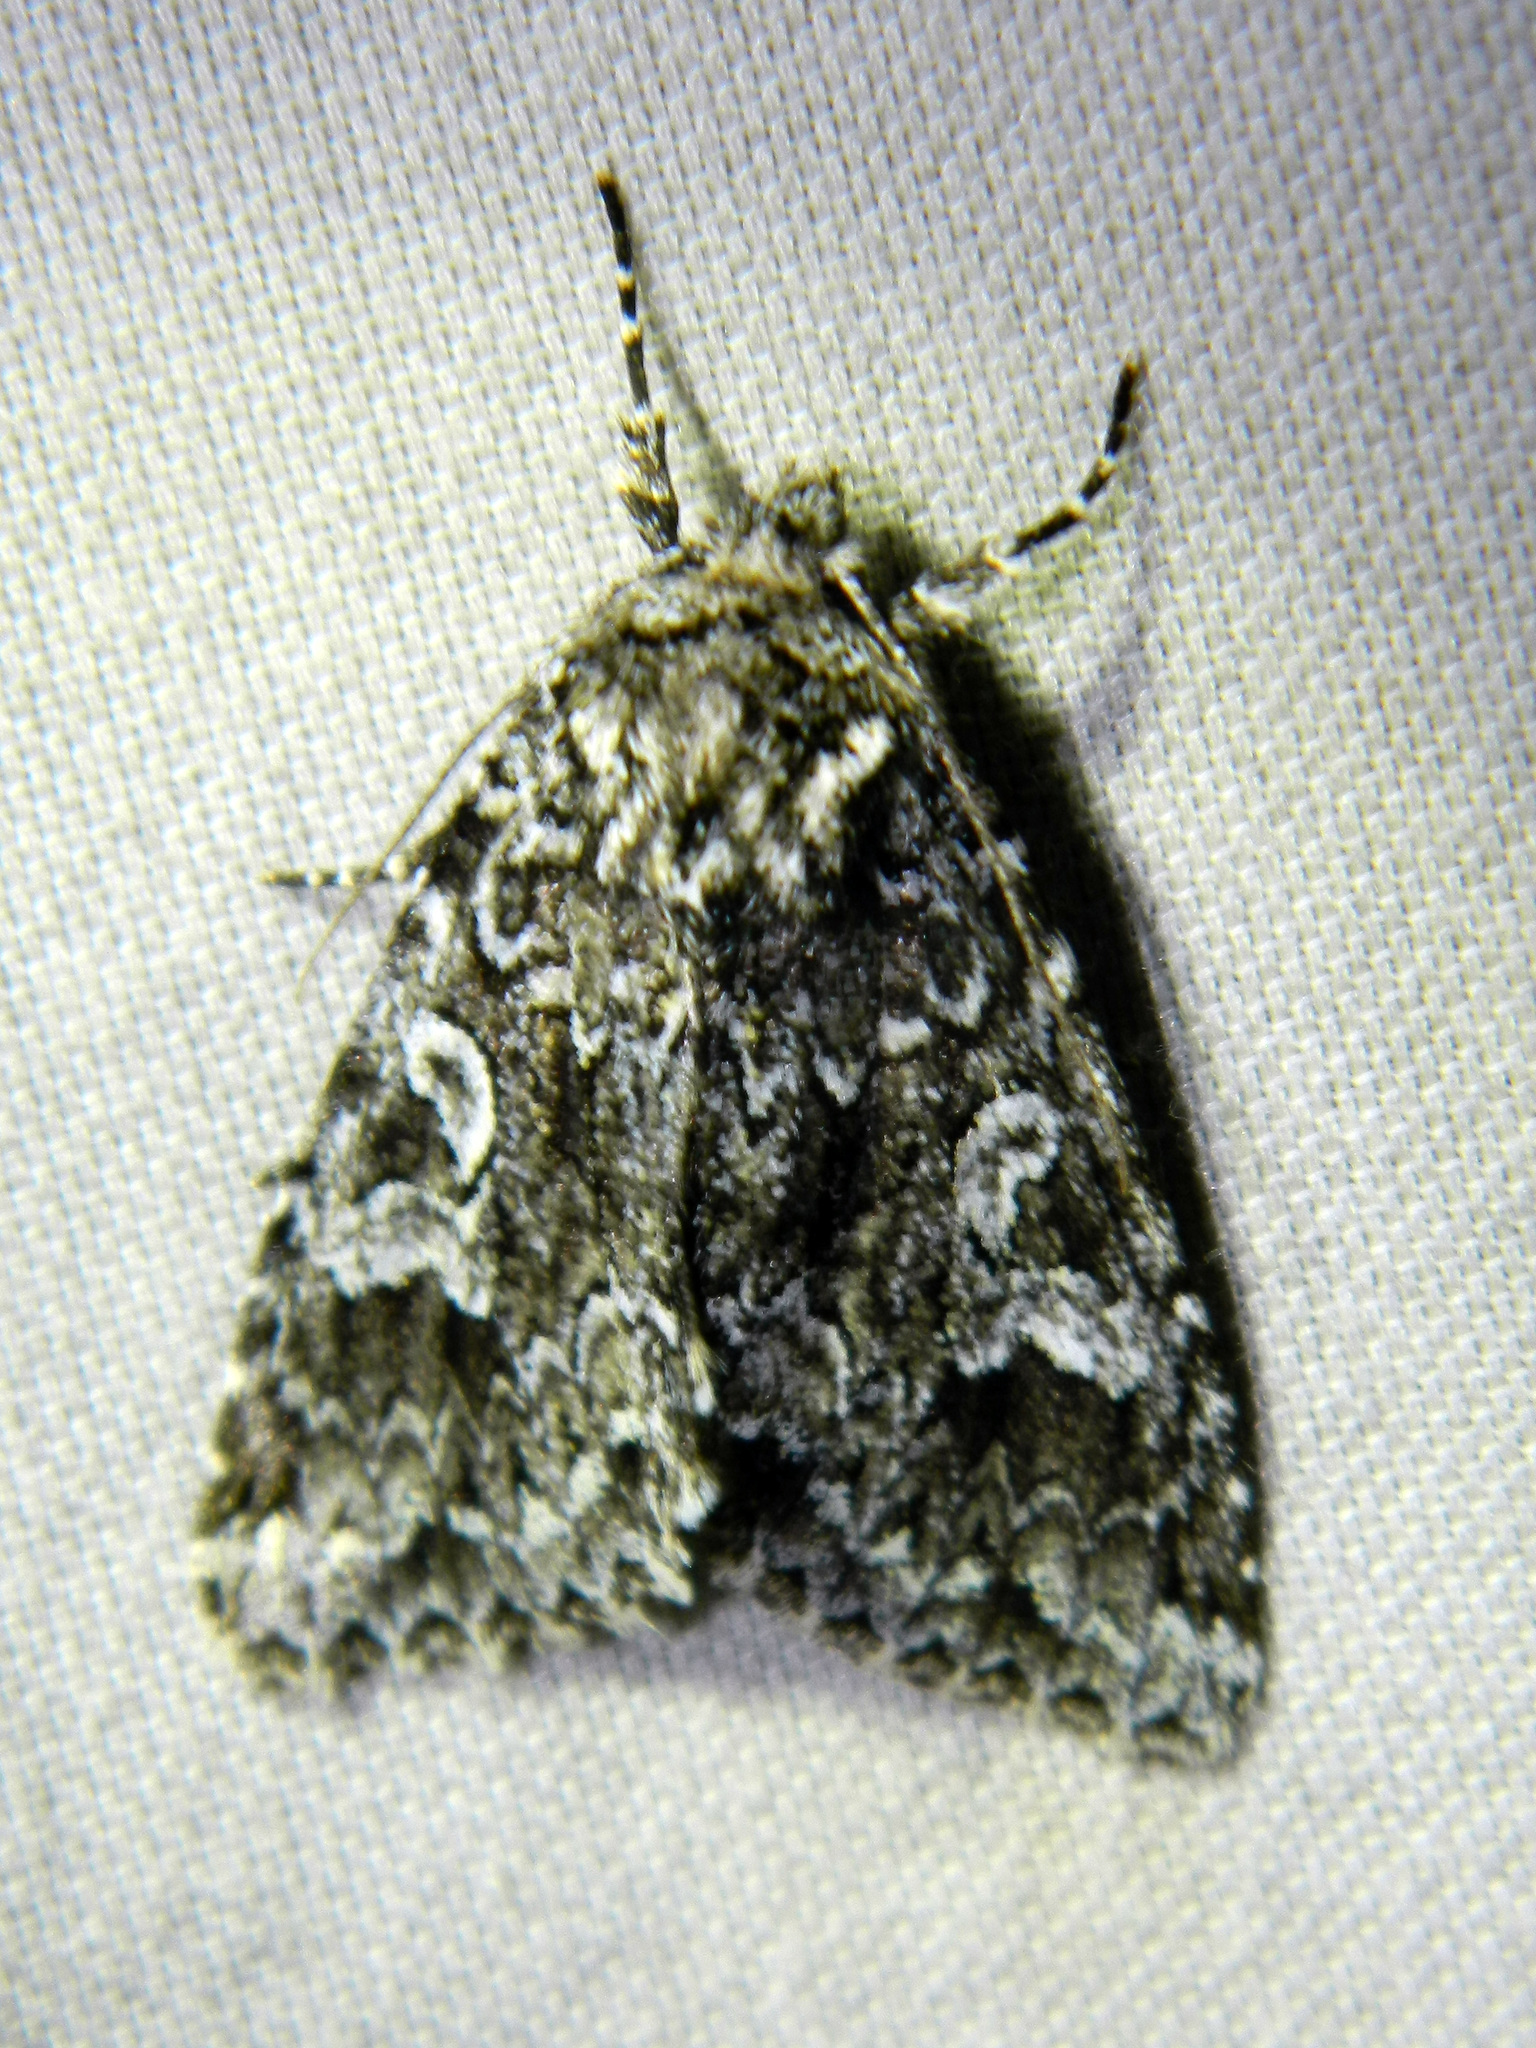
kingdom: Animalia
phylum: Arthropoda
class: Insecta
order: Lepidoptera
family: Noctuidae
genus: Platypolia
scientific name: Platypolia anceps
